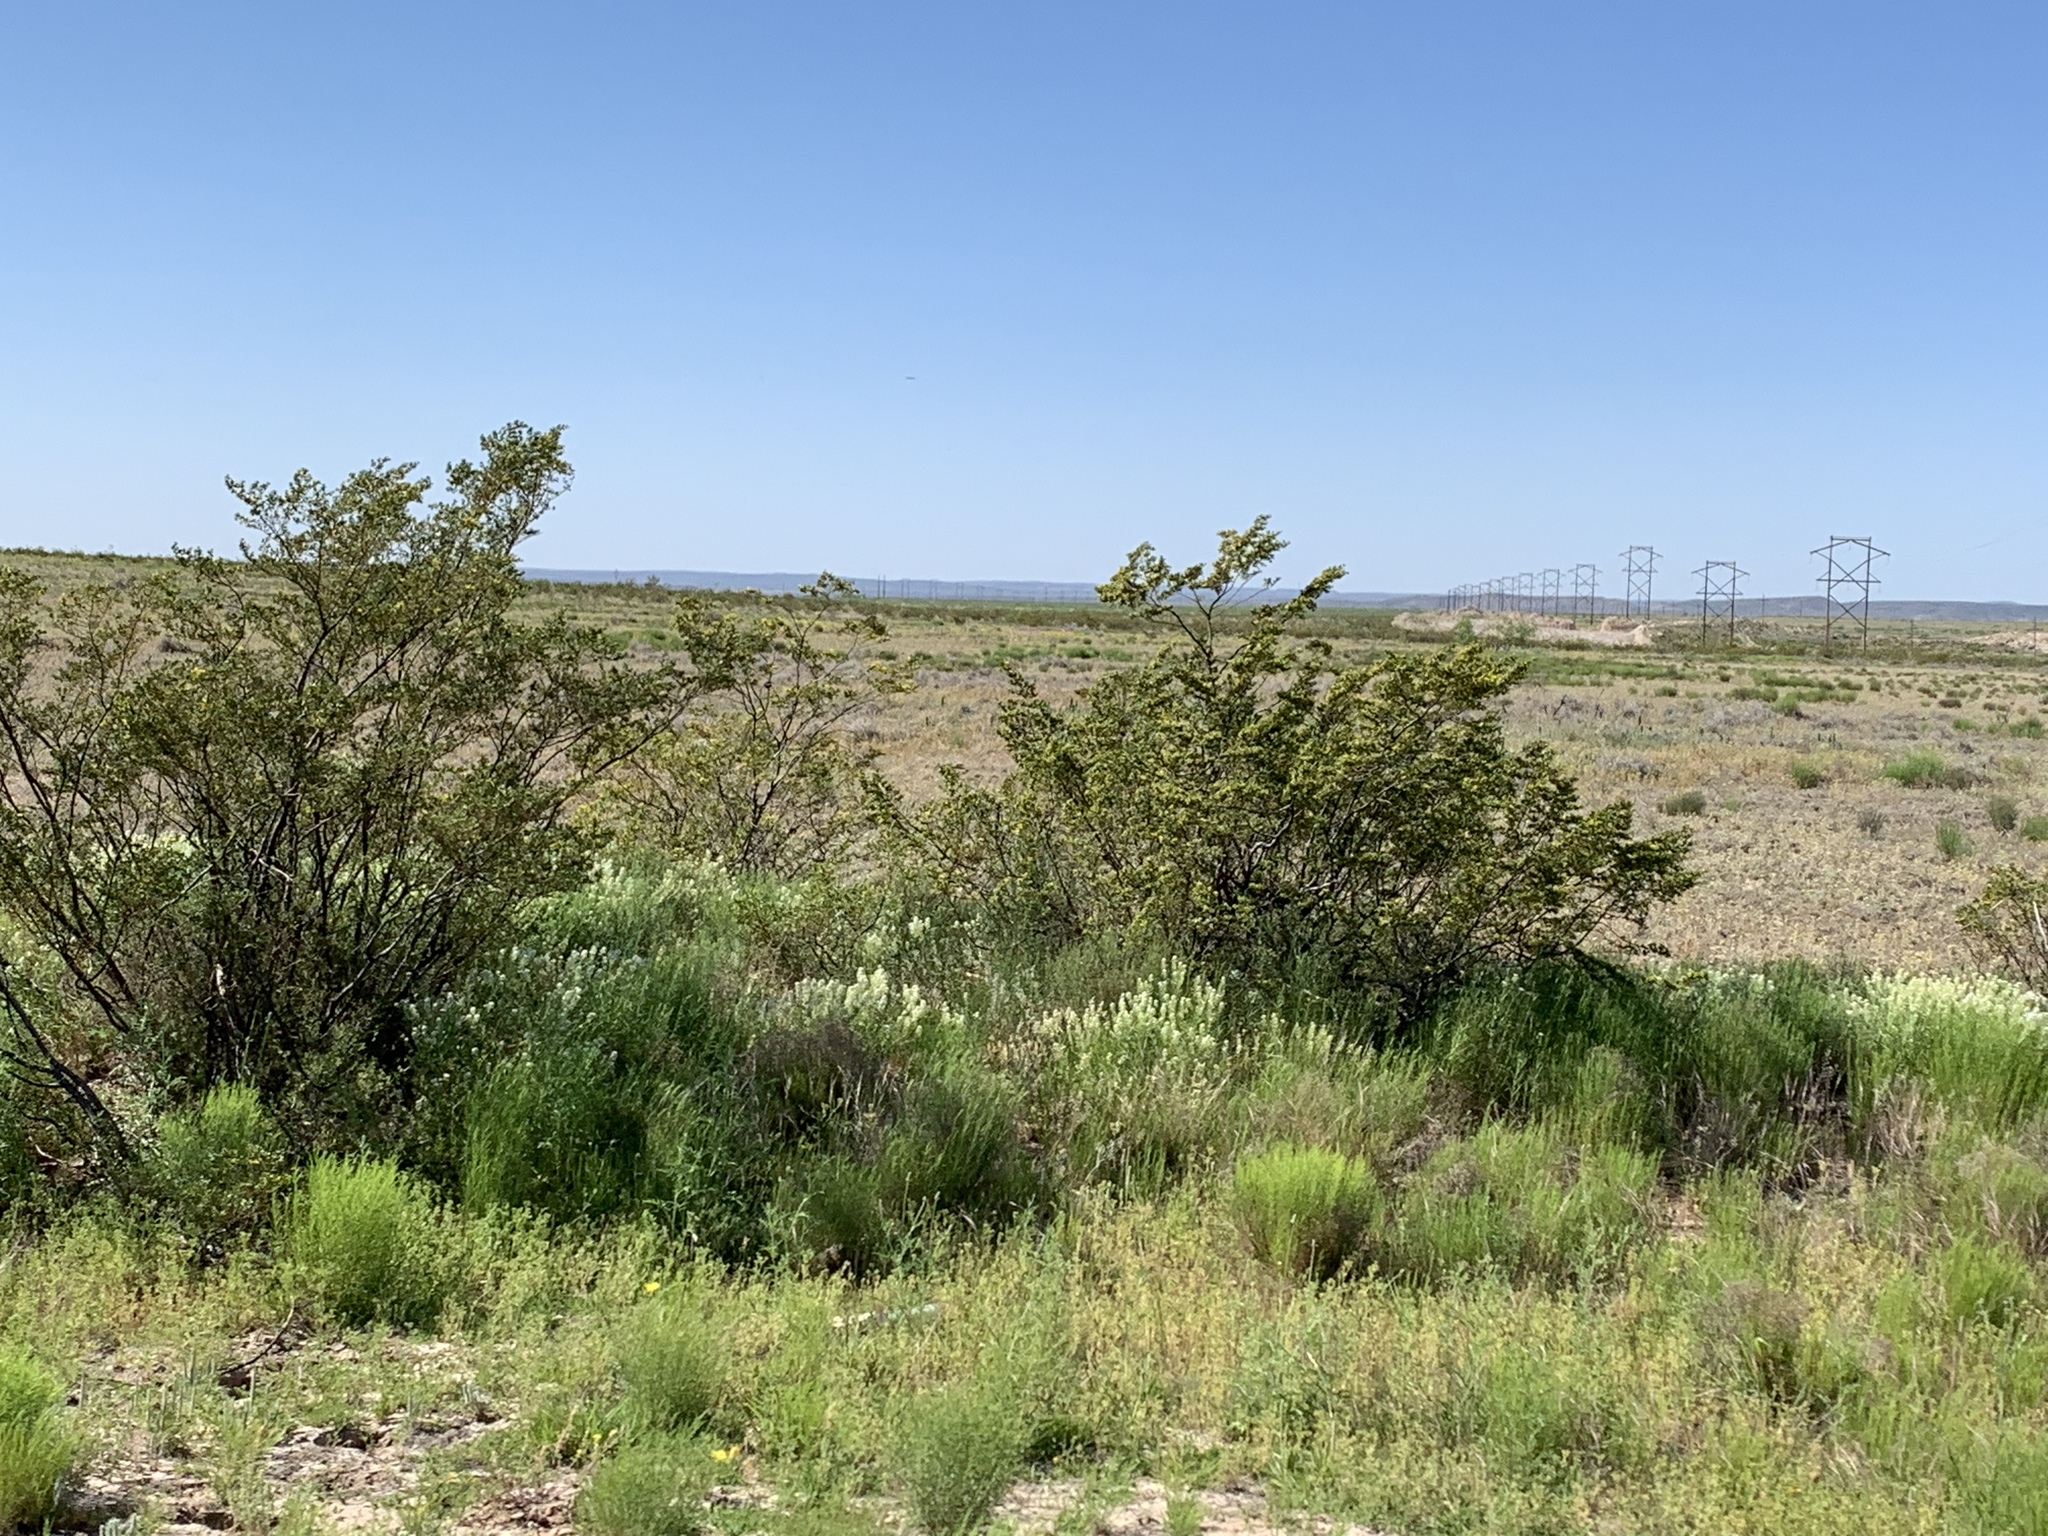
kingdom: Plantae
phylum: Tracheophyta
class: Magnoliopsida
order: Zygophyllales
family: Zygophyllaceae
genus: Larrea
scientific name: Larrea tridentata
